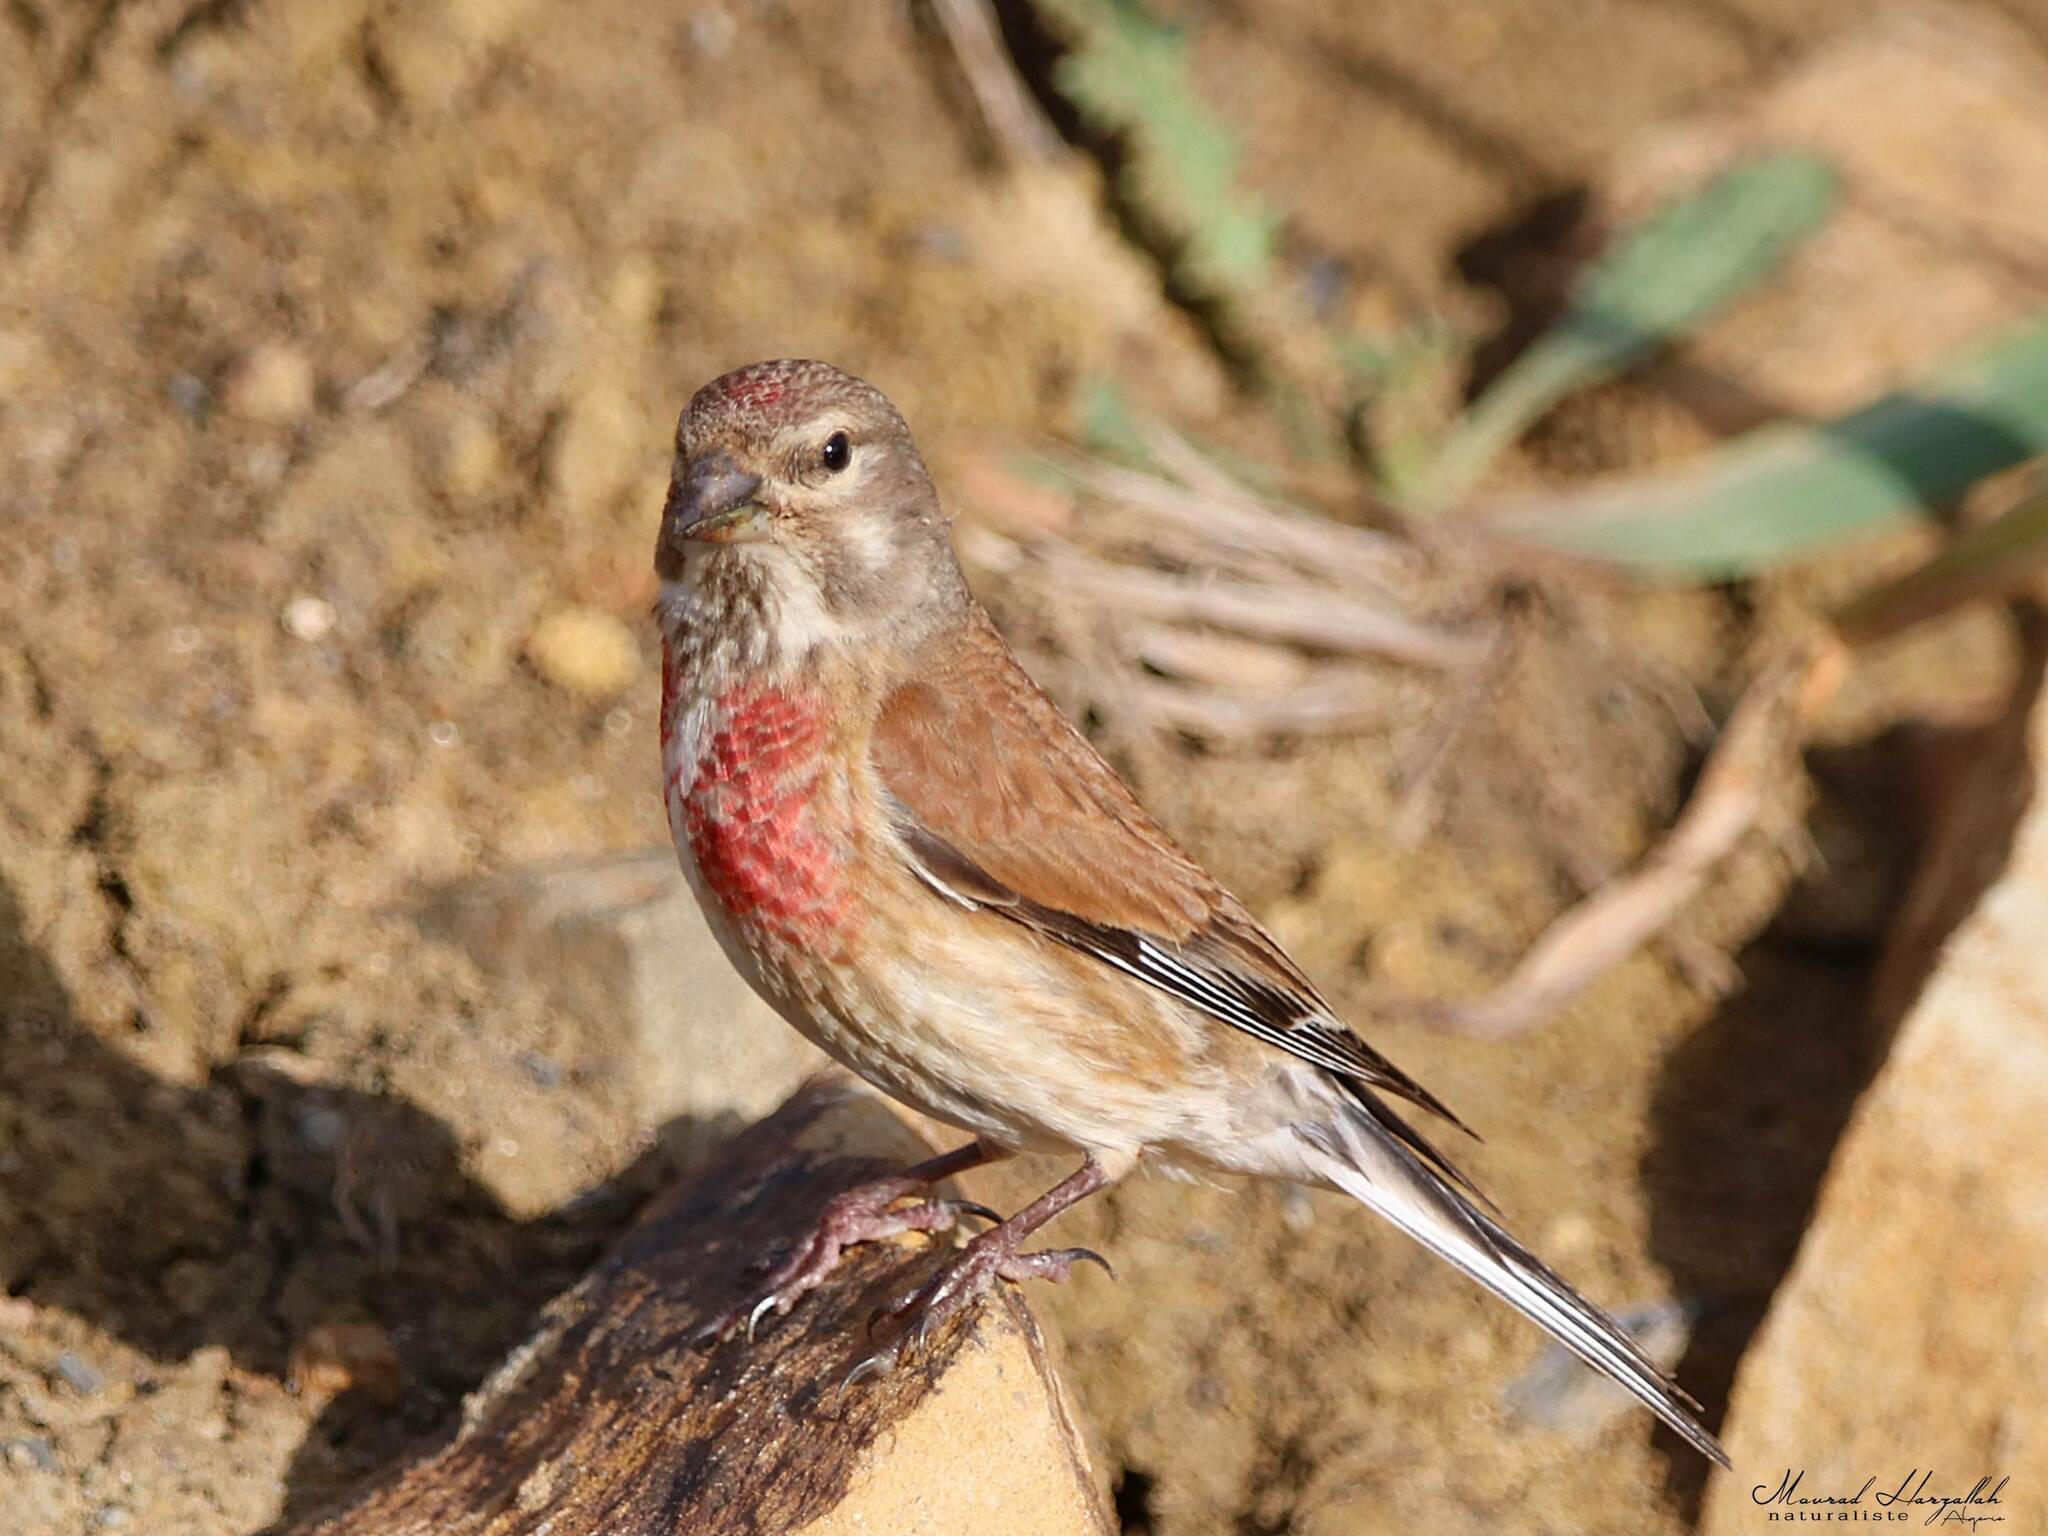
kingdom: Animalia
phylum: Chordata
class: Aves
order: Passeriformes
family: Fringillidae
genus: Linaria
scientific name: Linaria cannabina
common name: Common linnet
